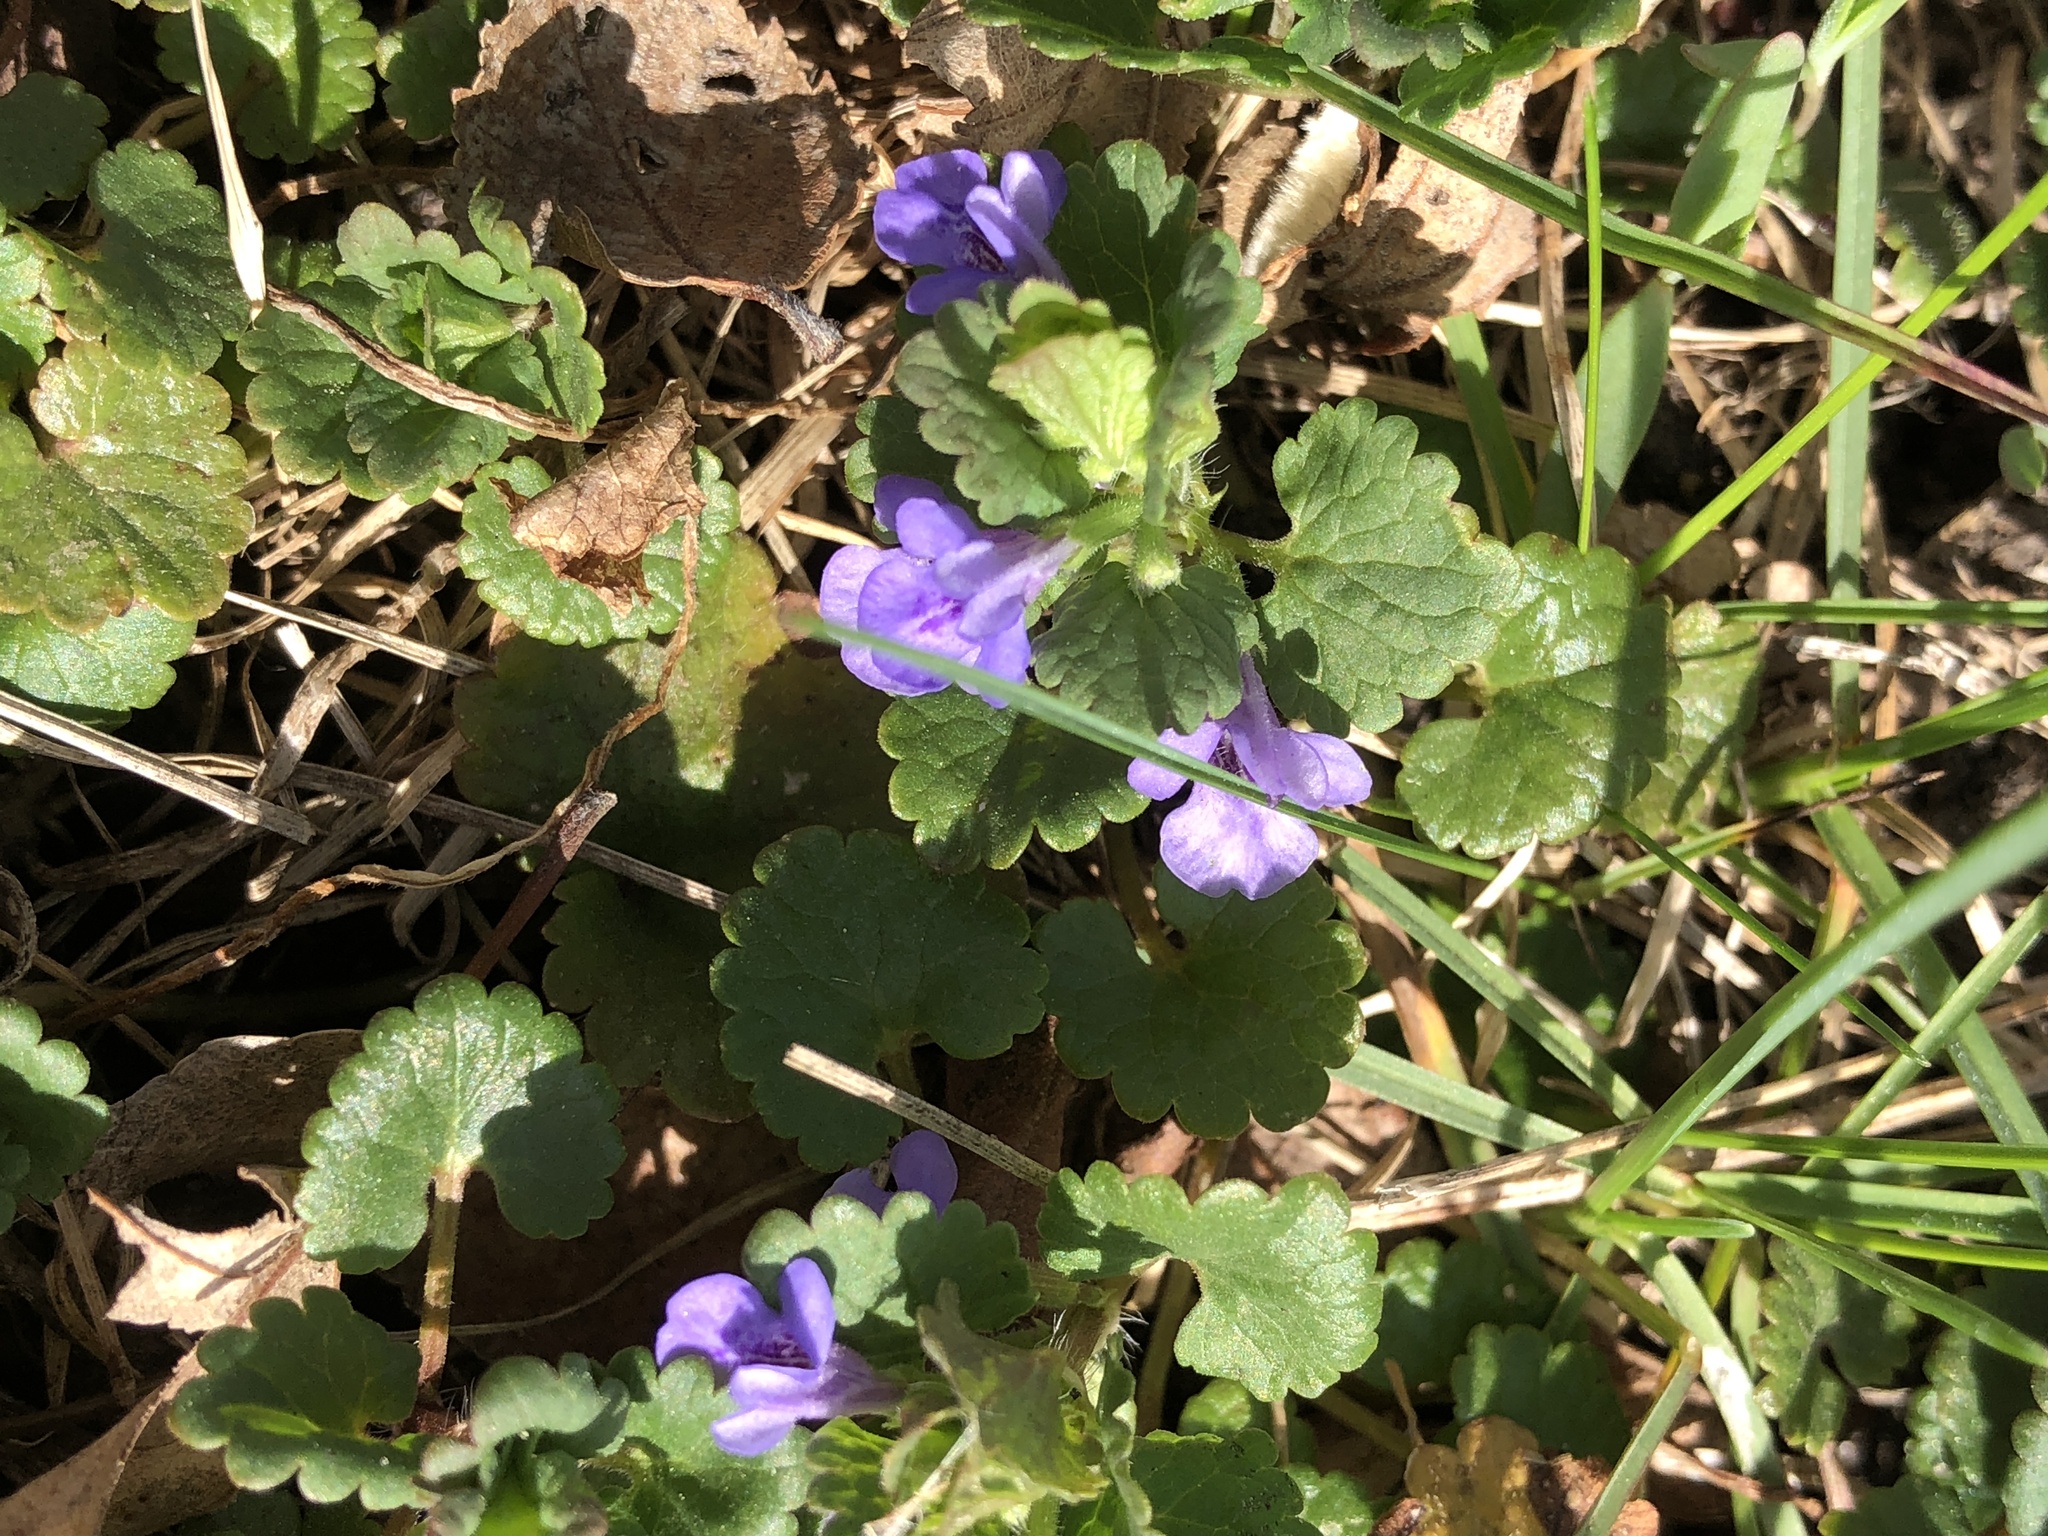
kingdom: Plantae
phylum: Tracheophyta
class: Magnoliopsida
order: Lamiales
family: Lamiaceae
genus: Glechoma
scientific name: Glechoma hederacea
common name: Ground ivy
